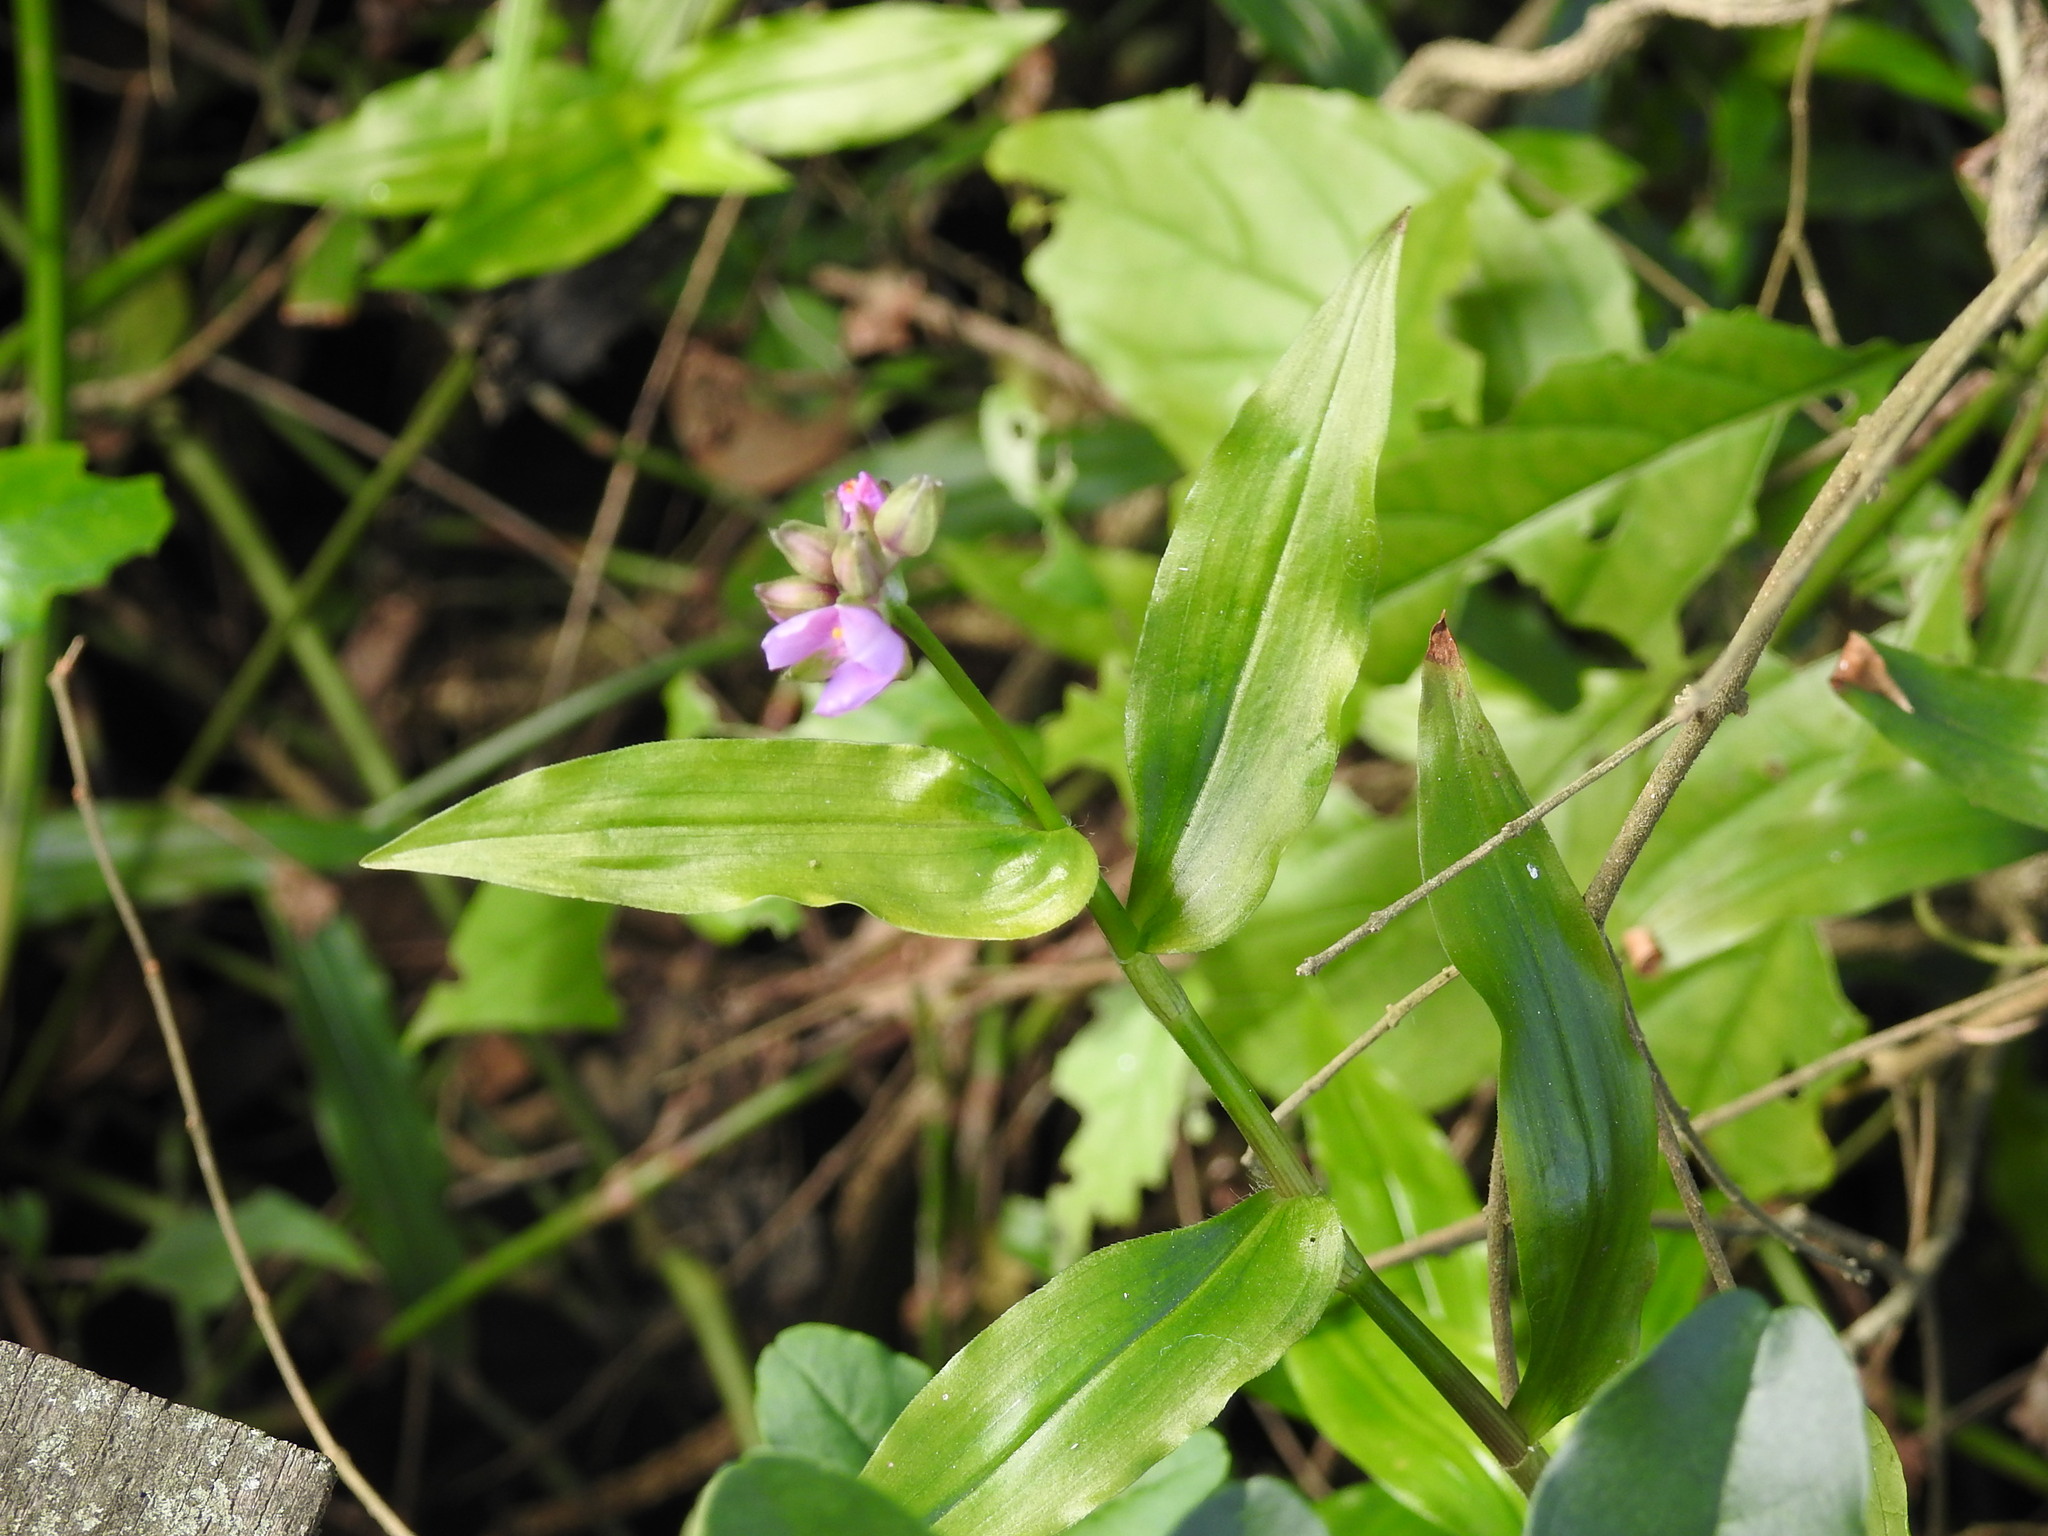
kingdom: Plantae
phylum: Tracheophyta
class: Liliopsida
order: Commelinales
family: Commelinaceae
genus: Callisia
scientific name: Callisia diuretica
